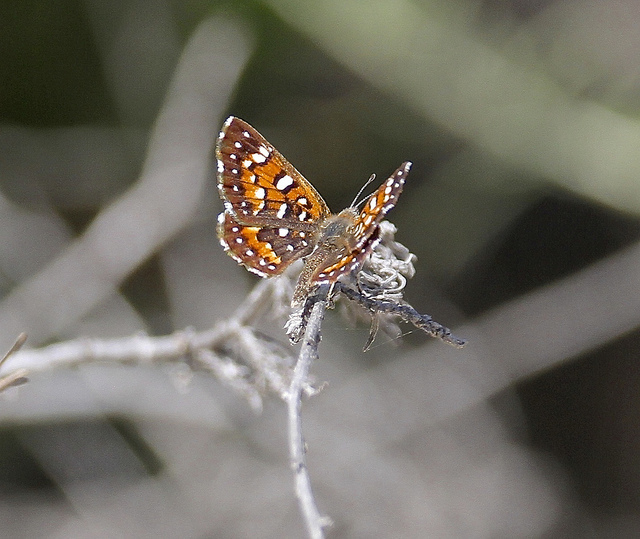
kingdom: Animalia
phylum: Arthropoda
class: Insecta
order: Lepidoptera
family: Riodinidae
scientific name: Riodinidae
